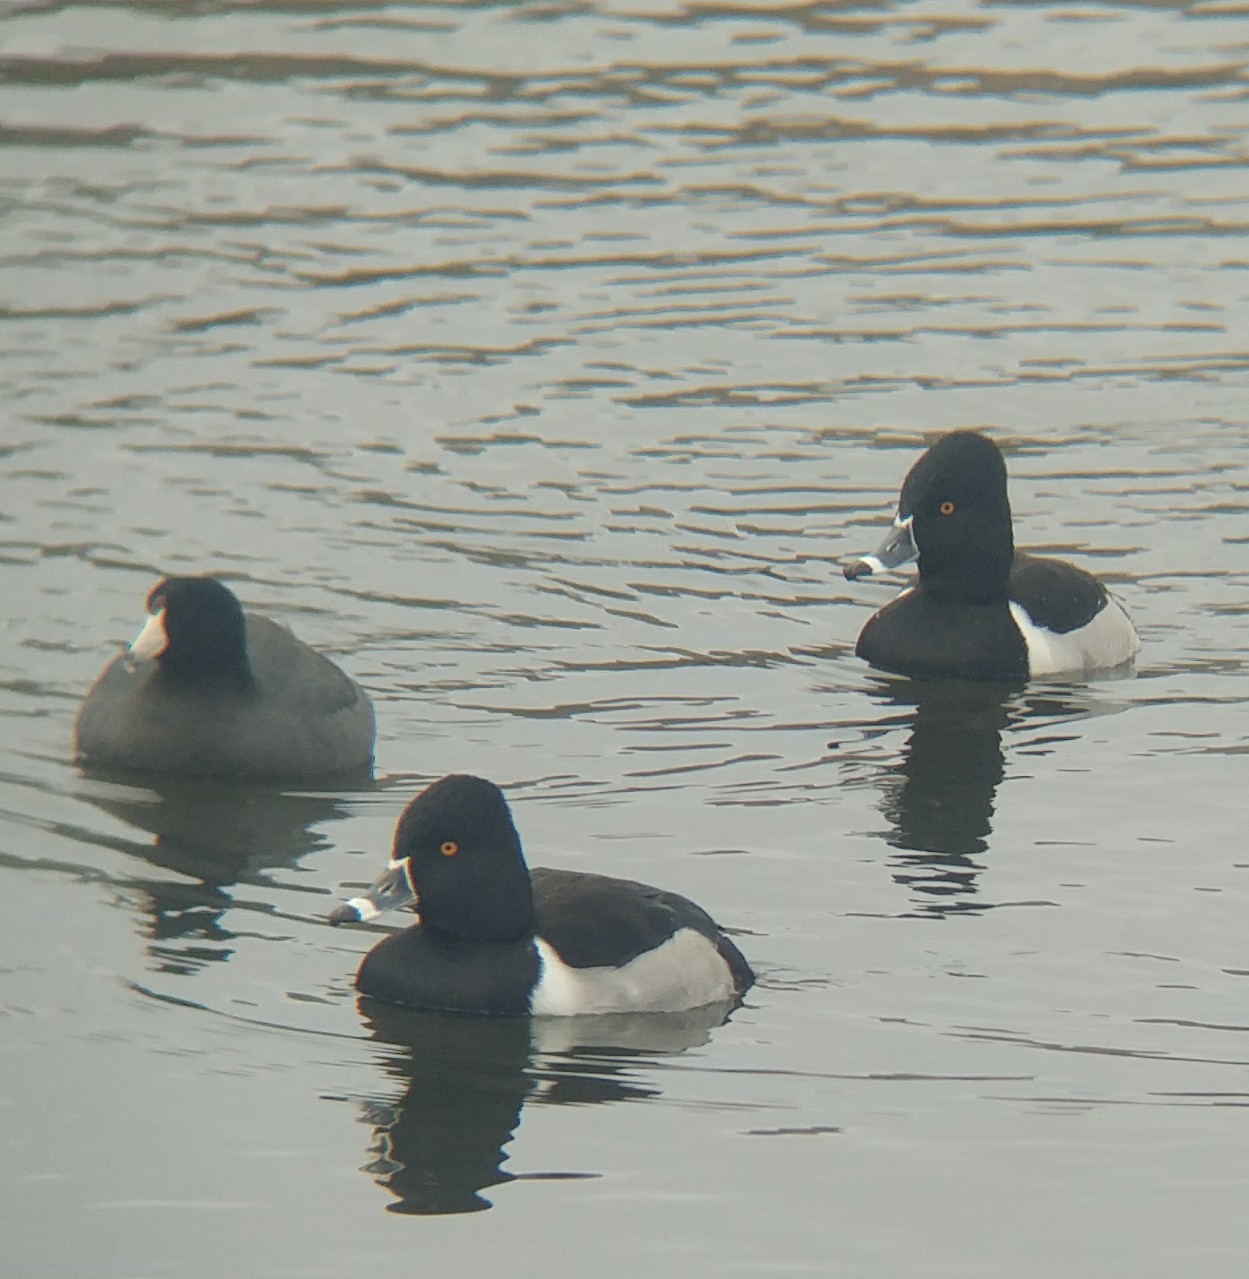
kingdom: Animalia
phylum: Chordata
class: Aves
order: Anseriformes
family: Anatidae
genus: Aythya
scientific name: Aythya collaris
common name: Ring-necked duck
